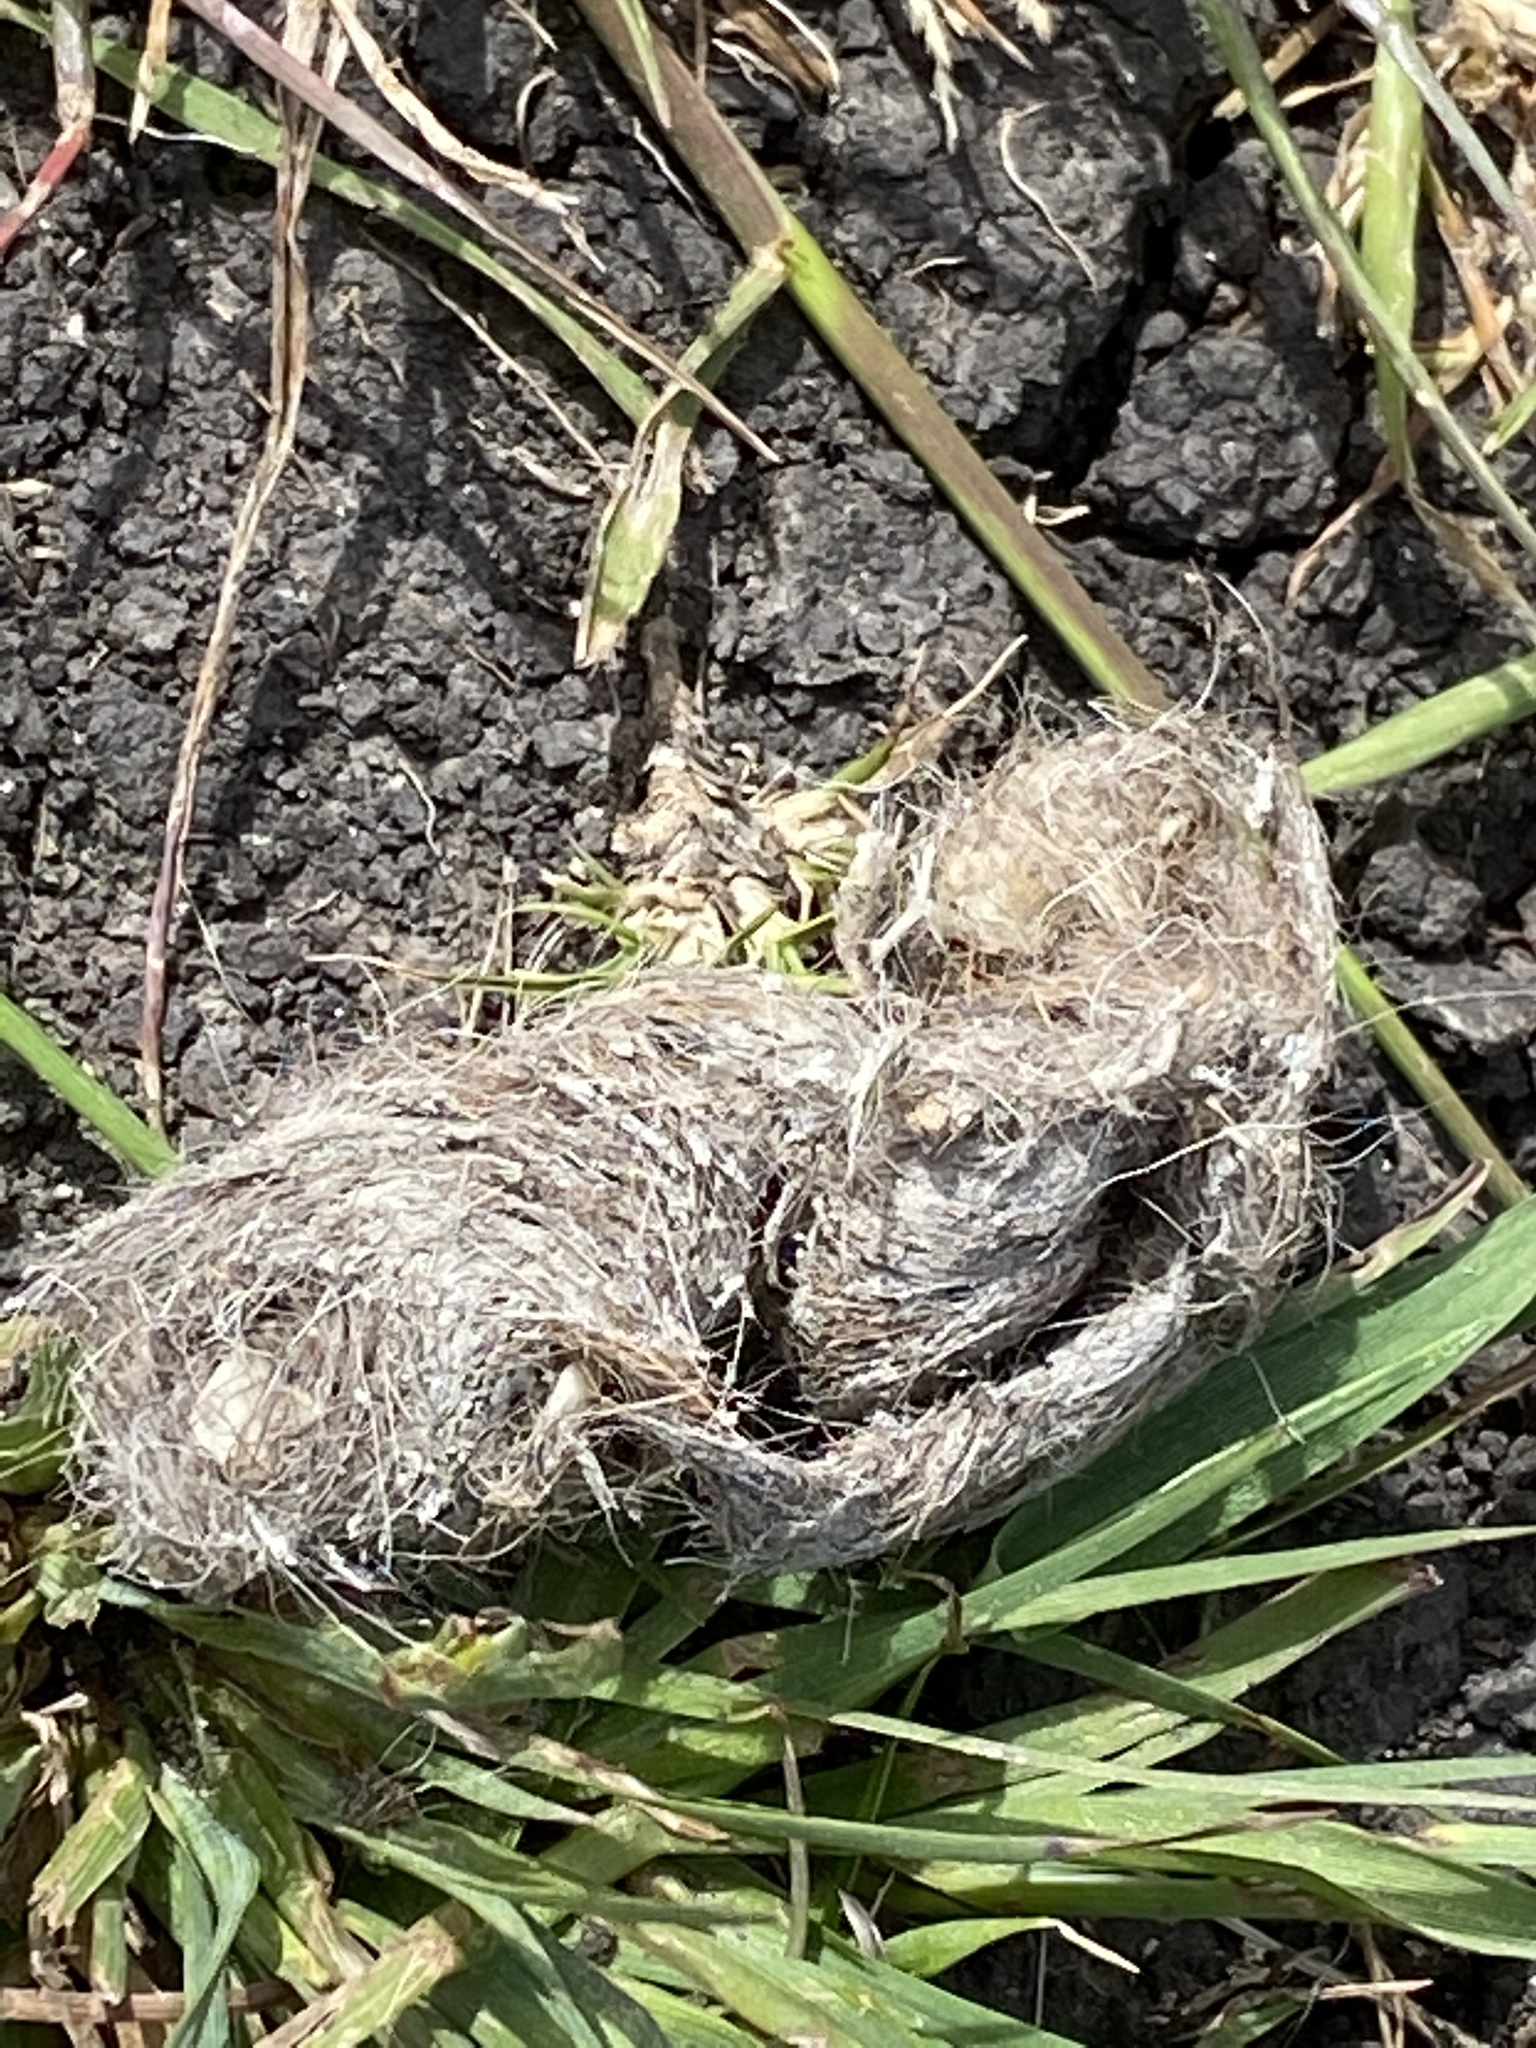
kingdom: Animalia
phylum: Chordata
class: Mammalia
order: Carnivora
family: Canidae
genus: Canis
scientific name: Canis latrans
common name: Coyote
